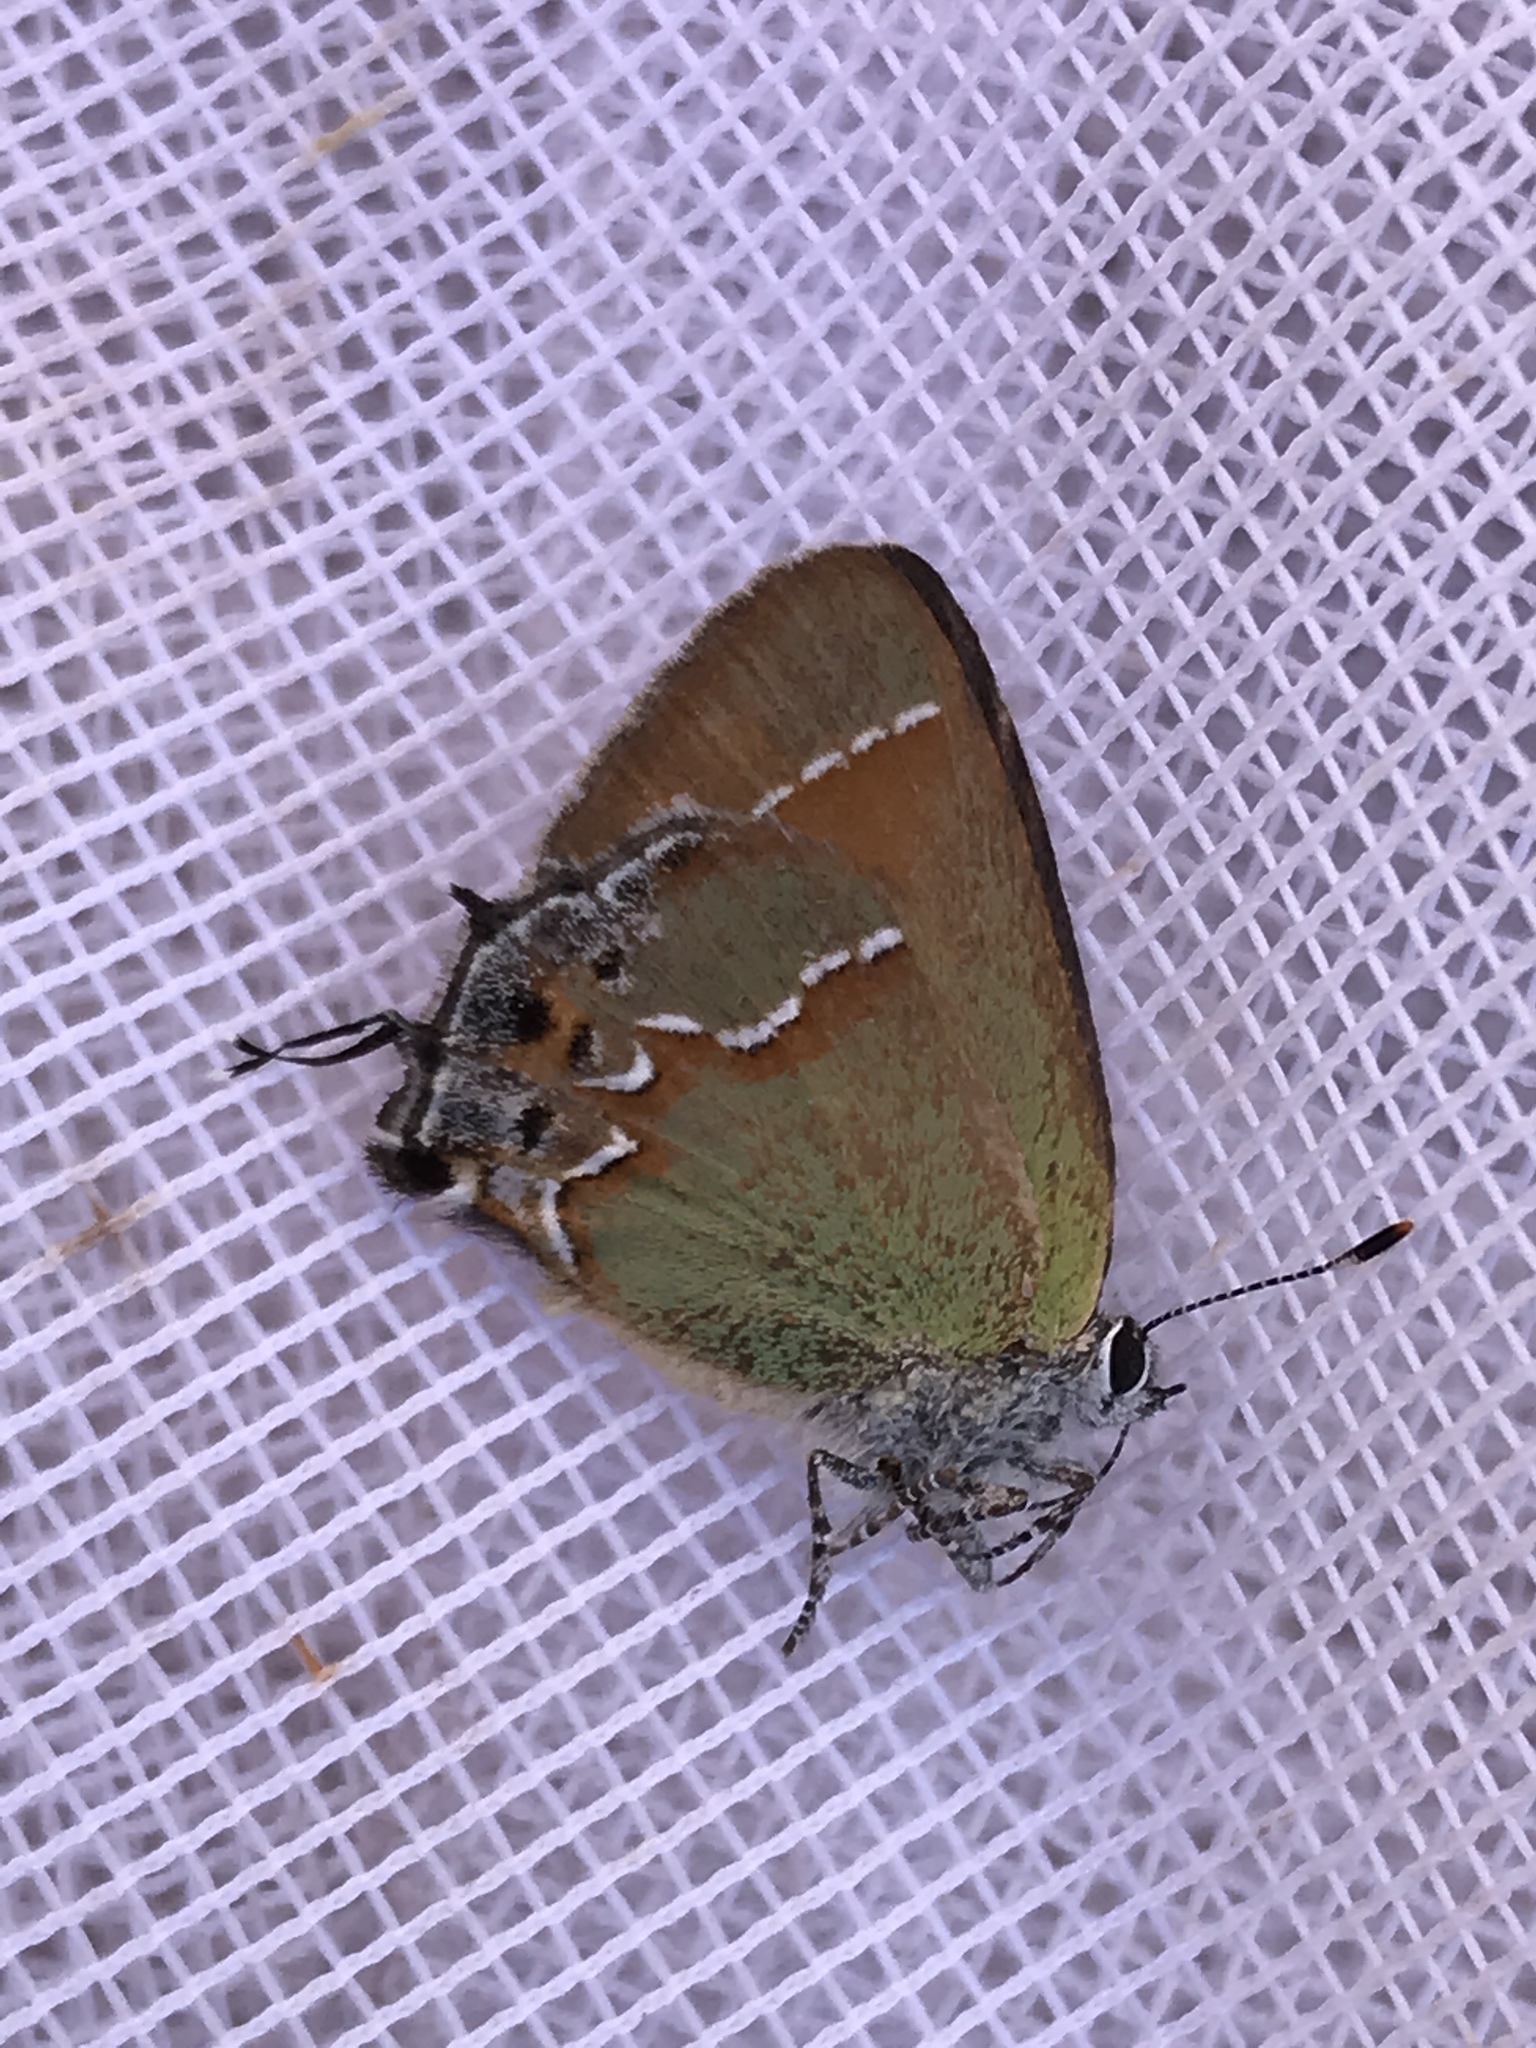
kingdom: Animalia
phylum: Arthropoda
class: Insecta
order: Lepidoptera
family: Lycaenidae
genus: Mitoura
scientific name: Mitoura siva
